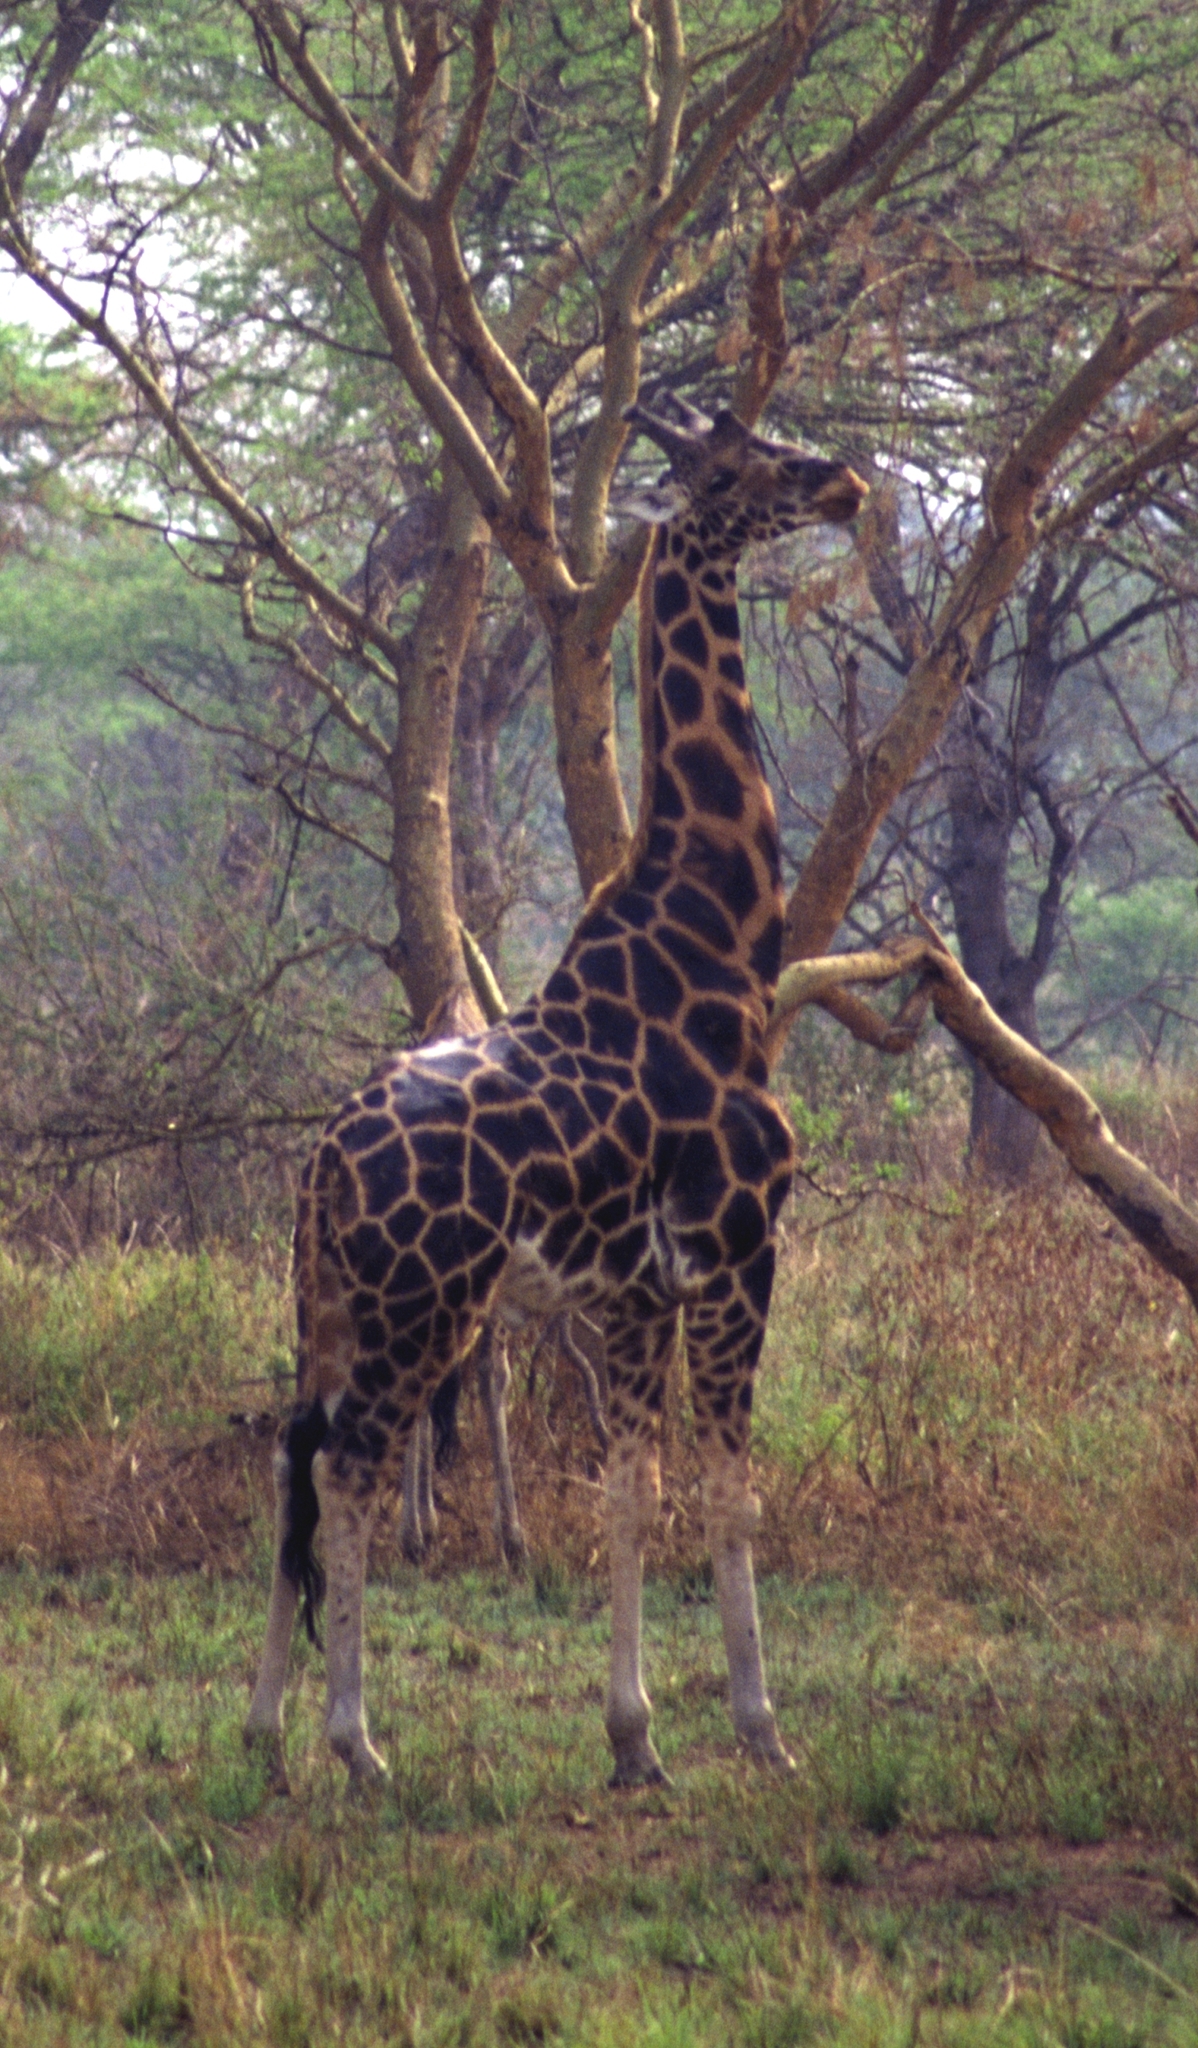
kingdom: Animalia
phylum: Chordata
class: Mammalia
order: Artiodactyla
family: Giraffidae
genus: Giraffa
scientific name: Giraffa camelopardalis
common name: Giraffe
